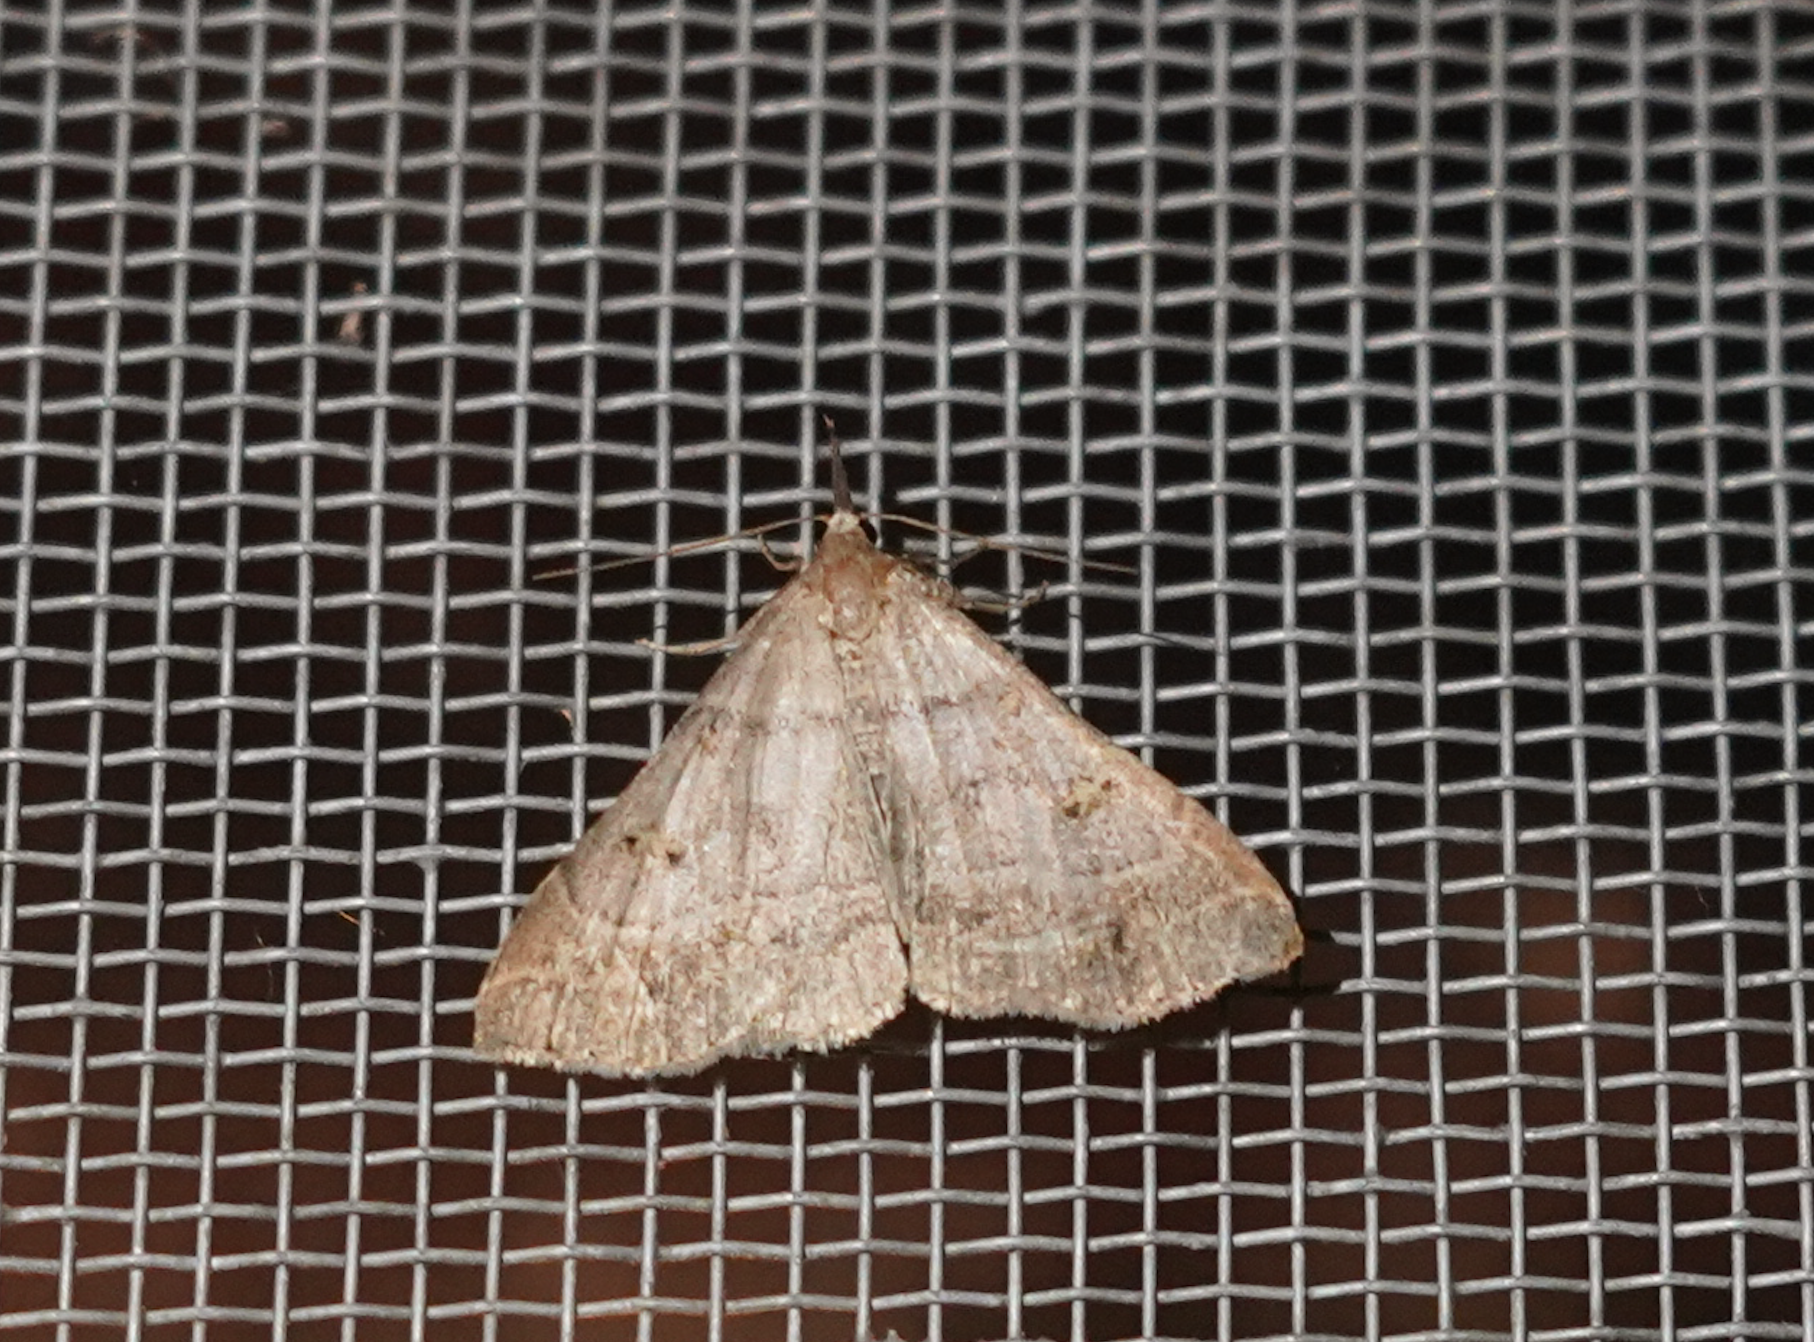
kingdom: Animalia
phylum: Arthropoda
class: Insecta
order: Lepidoptera
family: Erebidae
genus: Renia
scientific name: Renia flavipunctalis
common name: Yellow-spotted renia moth
